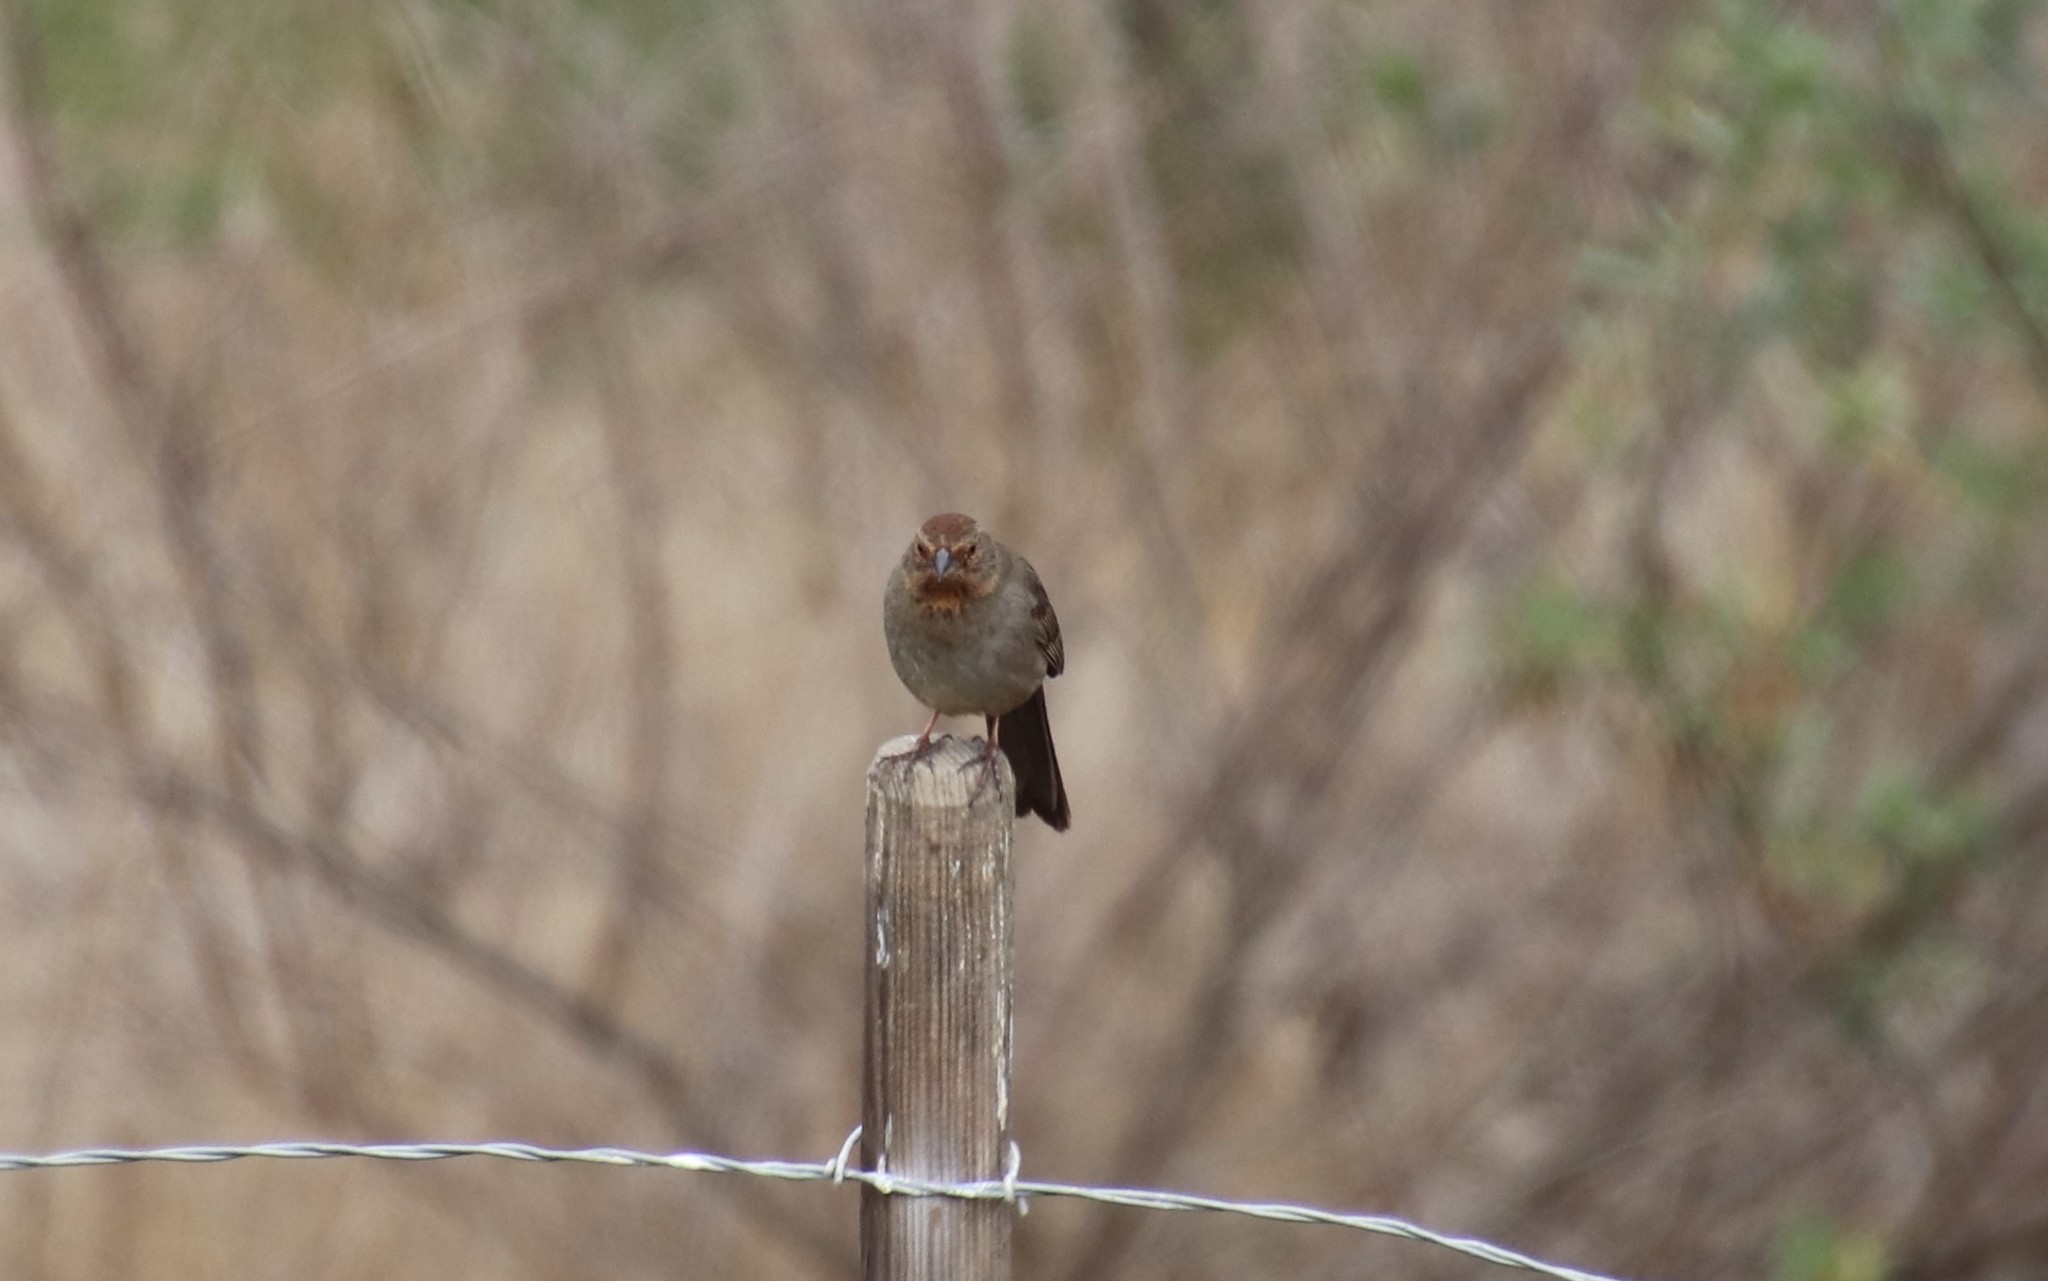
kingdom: Animalia
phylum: Chordata
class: Aves
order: Passeriformes
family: Passerellidae
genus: Melozone
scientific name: Melozone crissalis
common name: California towhee
